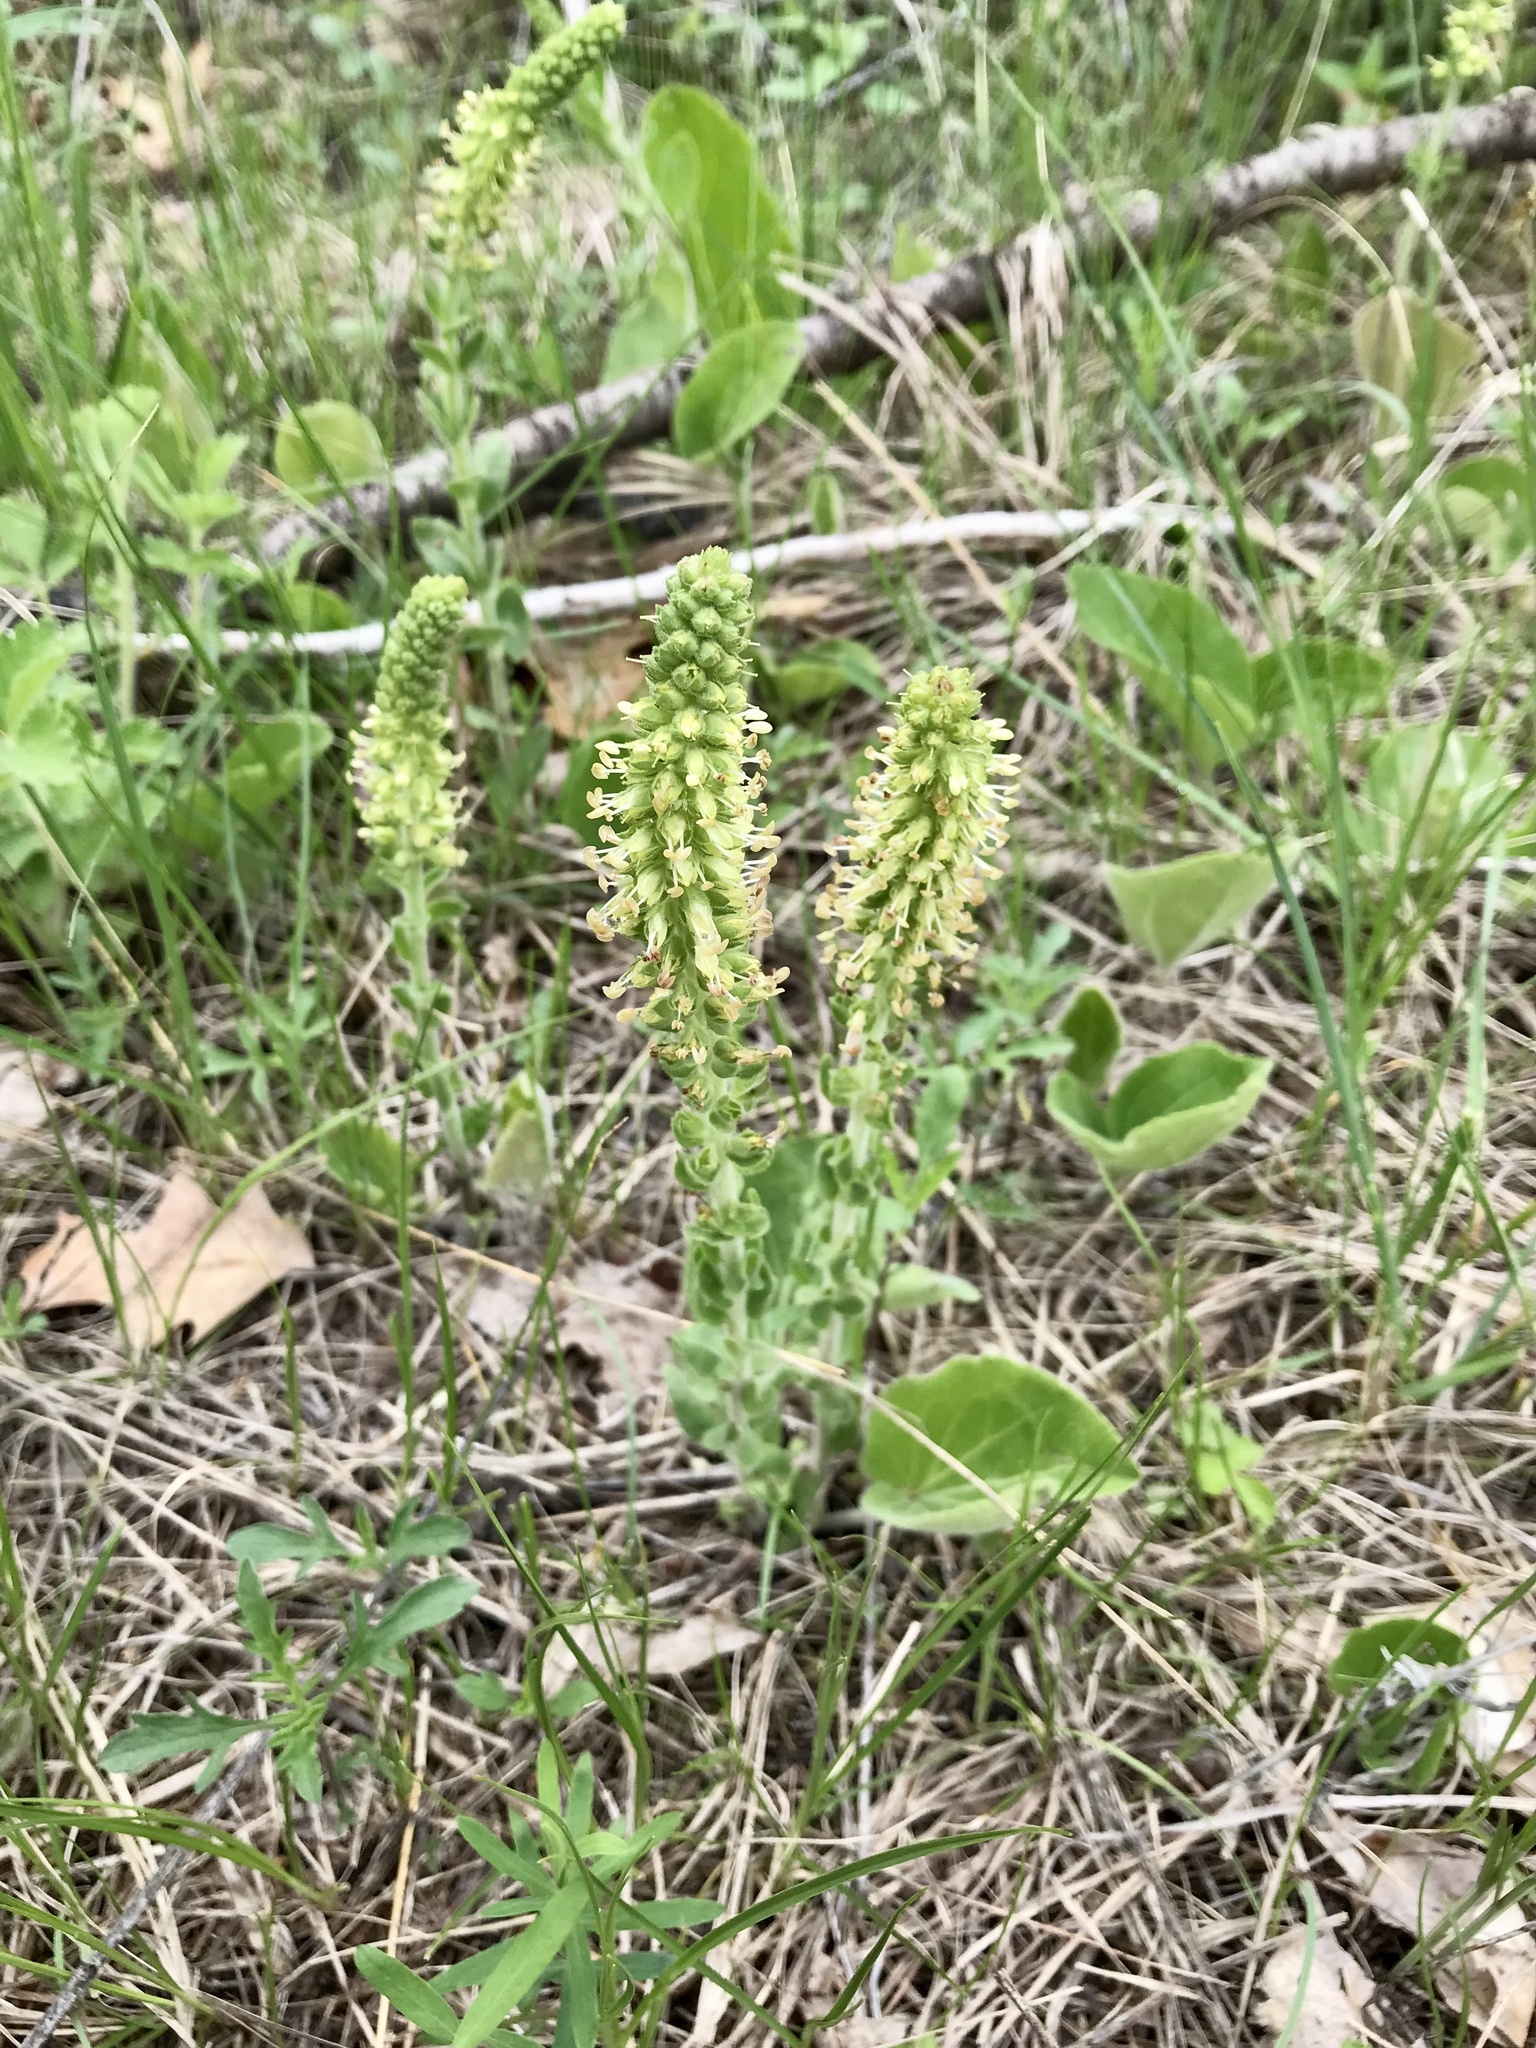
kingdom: Plantae
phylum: Tracheophyta
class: Magnoliopsida
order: Lamiales
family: Plantaginaceae
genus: Synthyris
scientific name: Synthyris bullii
